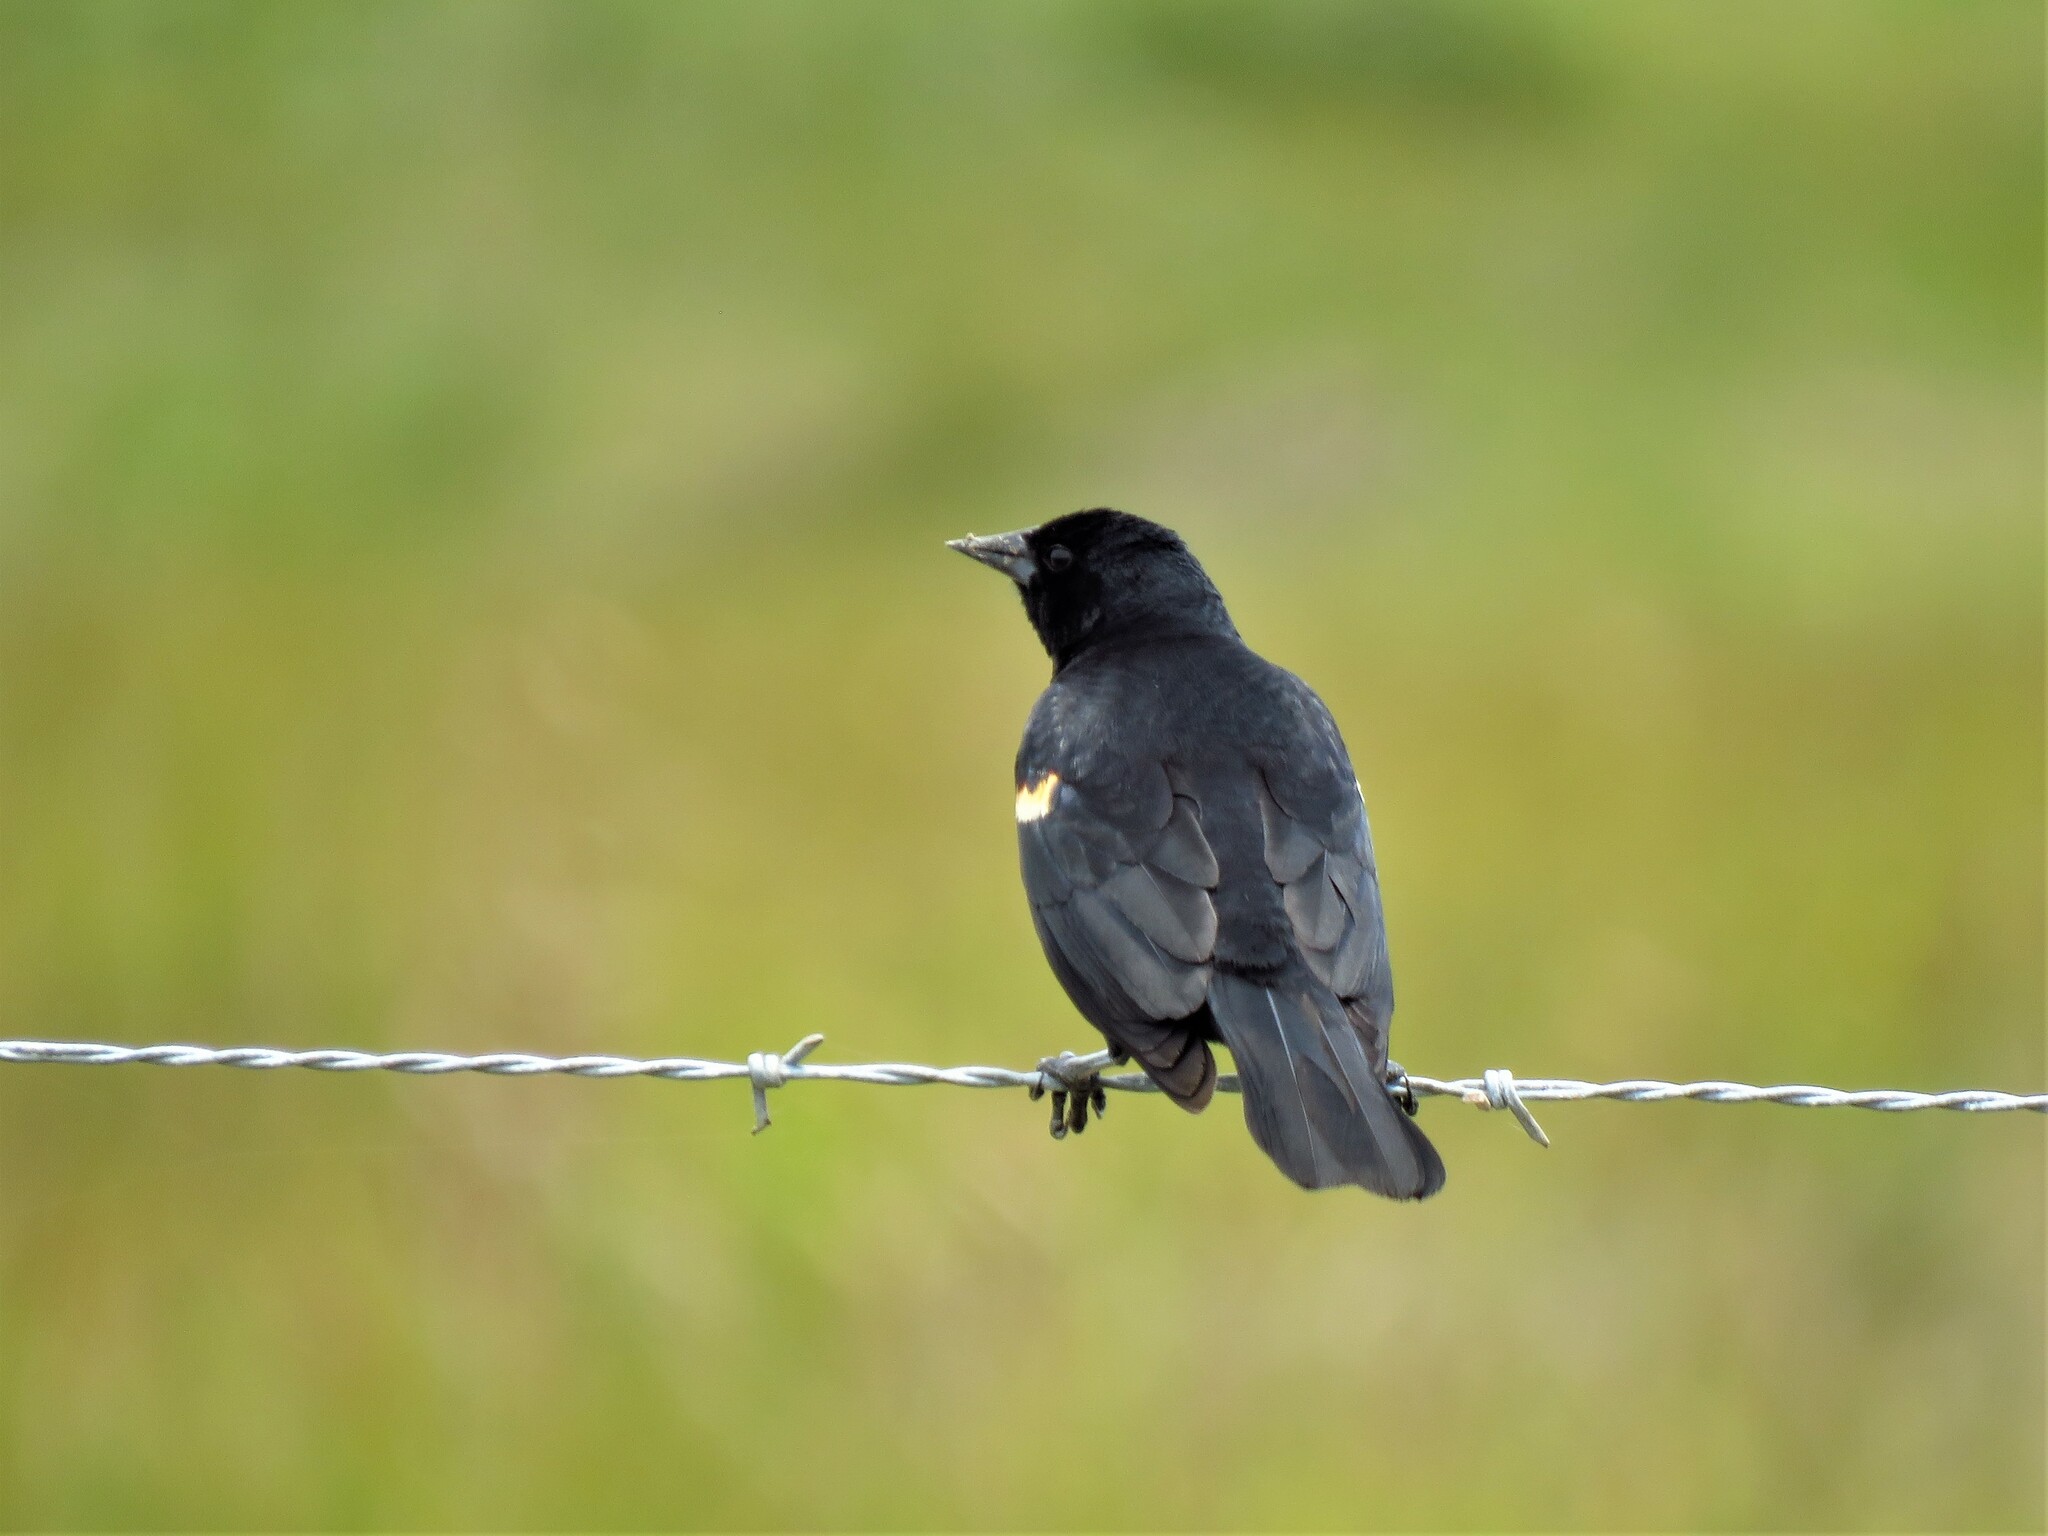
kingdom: Animalia
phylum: Chordata
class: Aves
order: Passeriformes
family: Icteridae
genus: Agelaius
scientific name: Agelaius phoeniceus
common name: Red-winged blackbird
